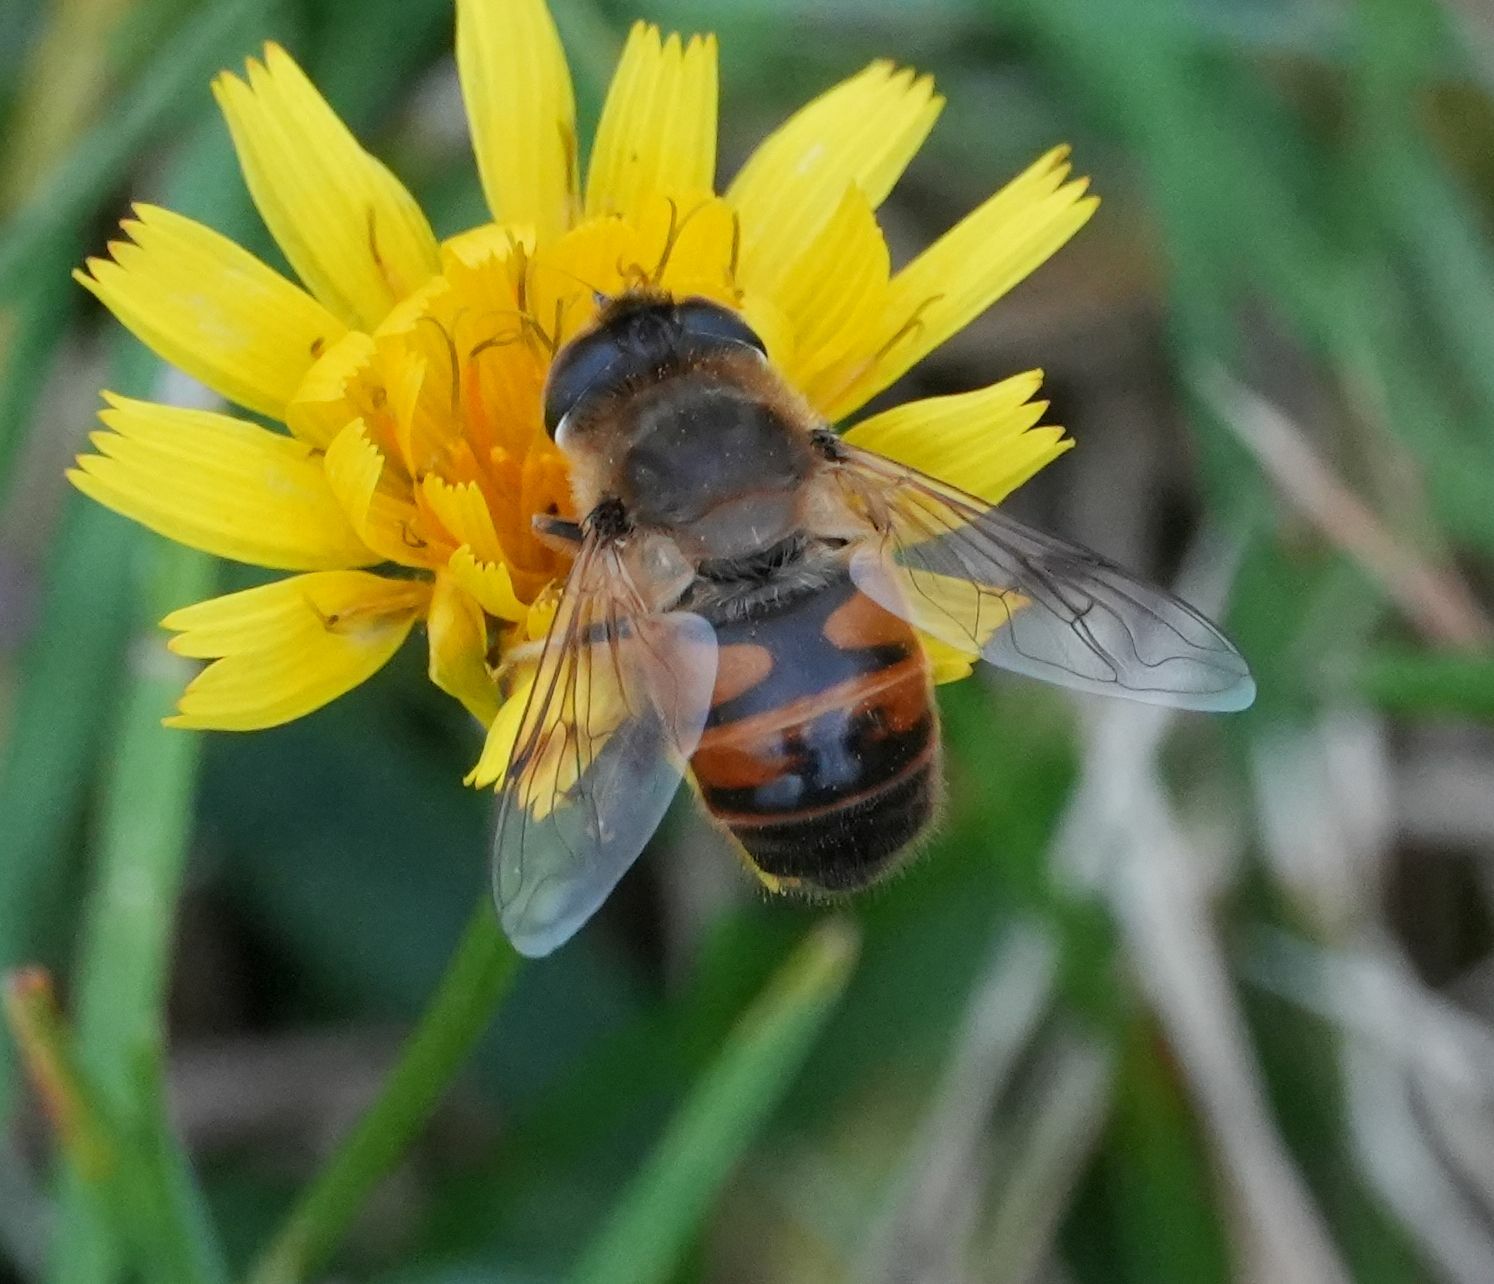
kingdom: Animalia
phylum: Arthropoda
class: Insecta
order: Diptera
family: Syrphidae
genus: Eristalis
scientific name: Eristalis tenax
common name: Drone fly
